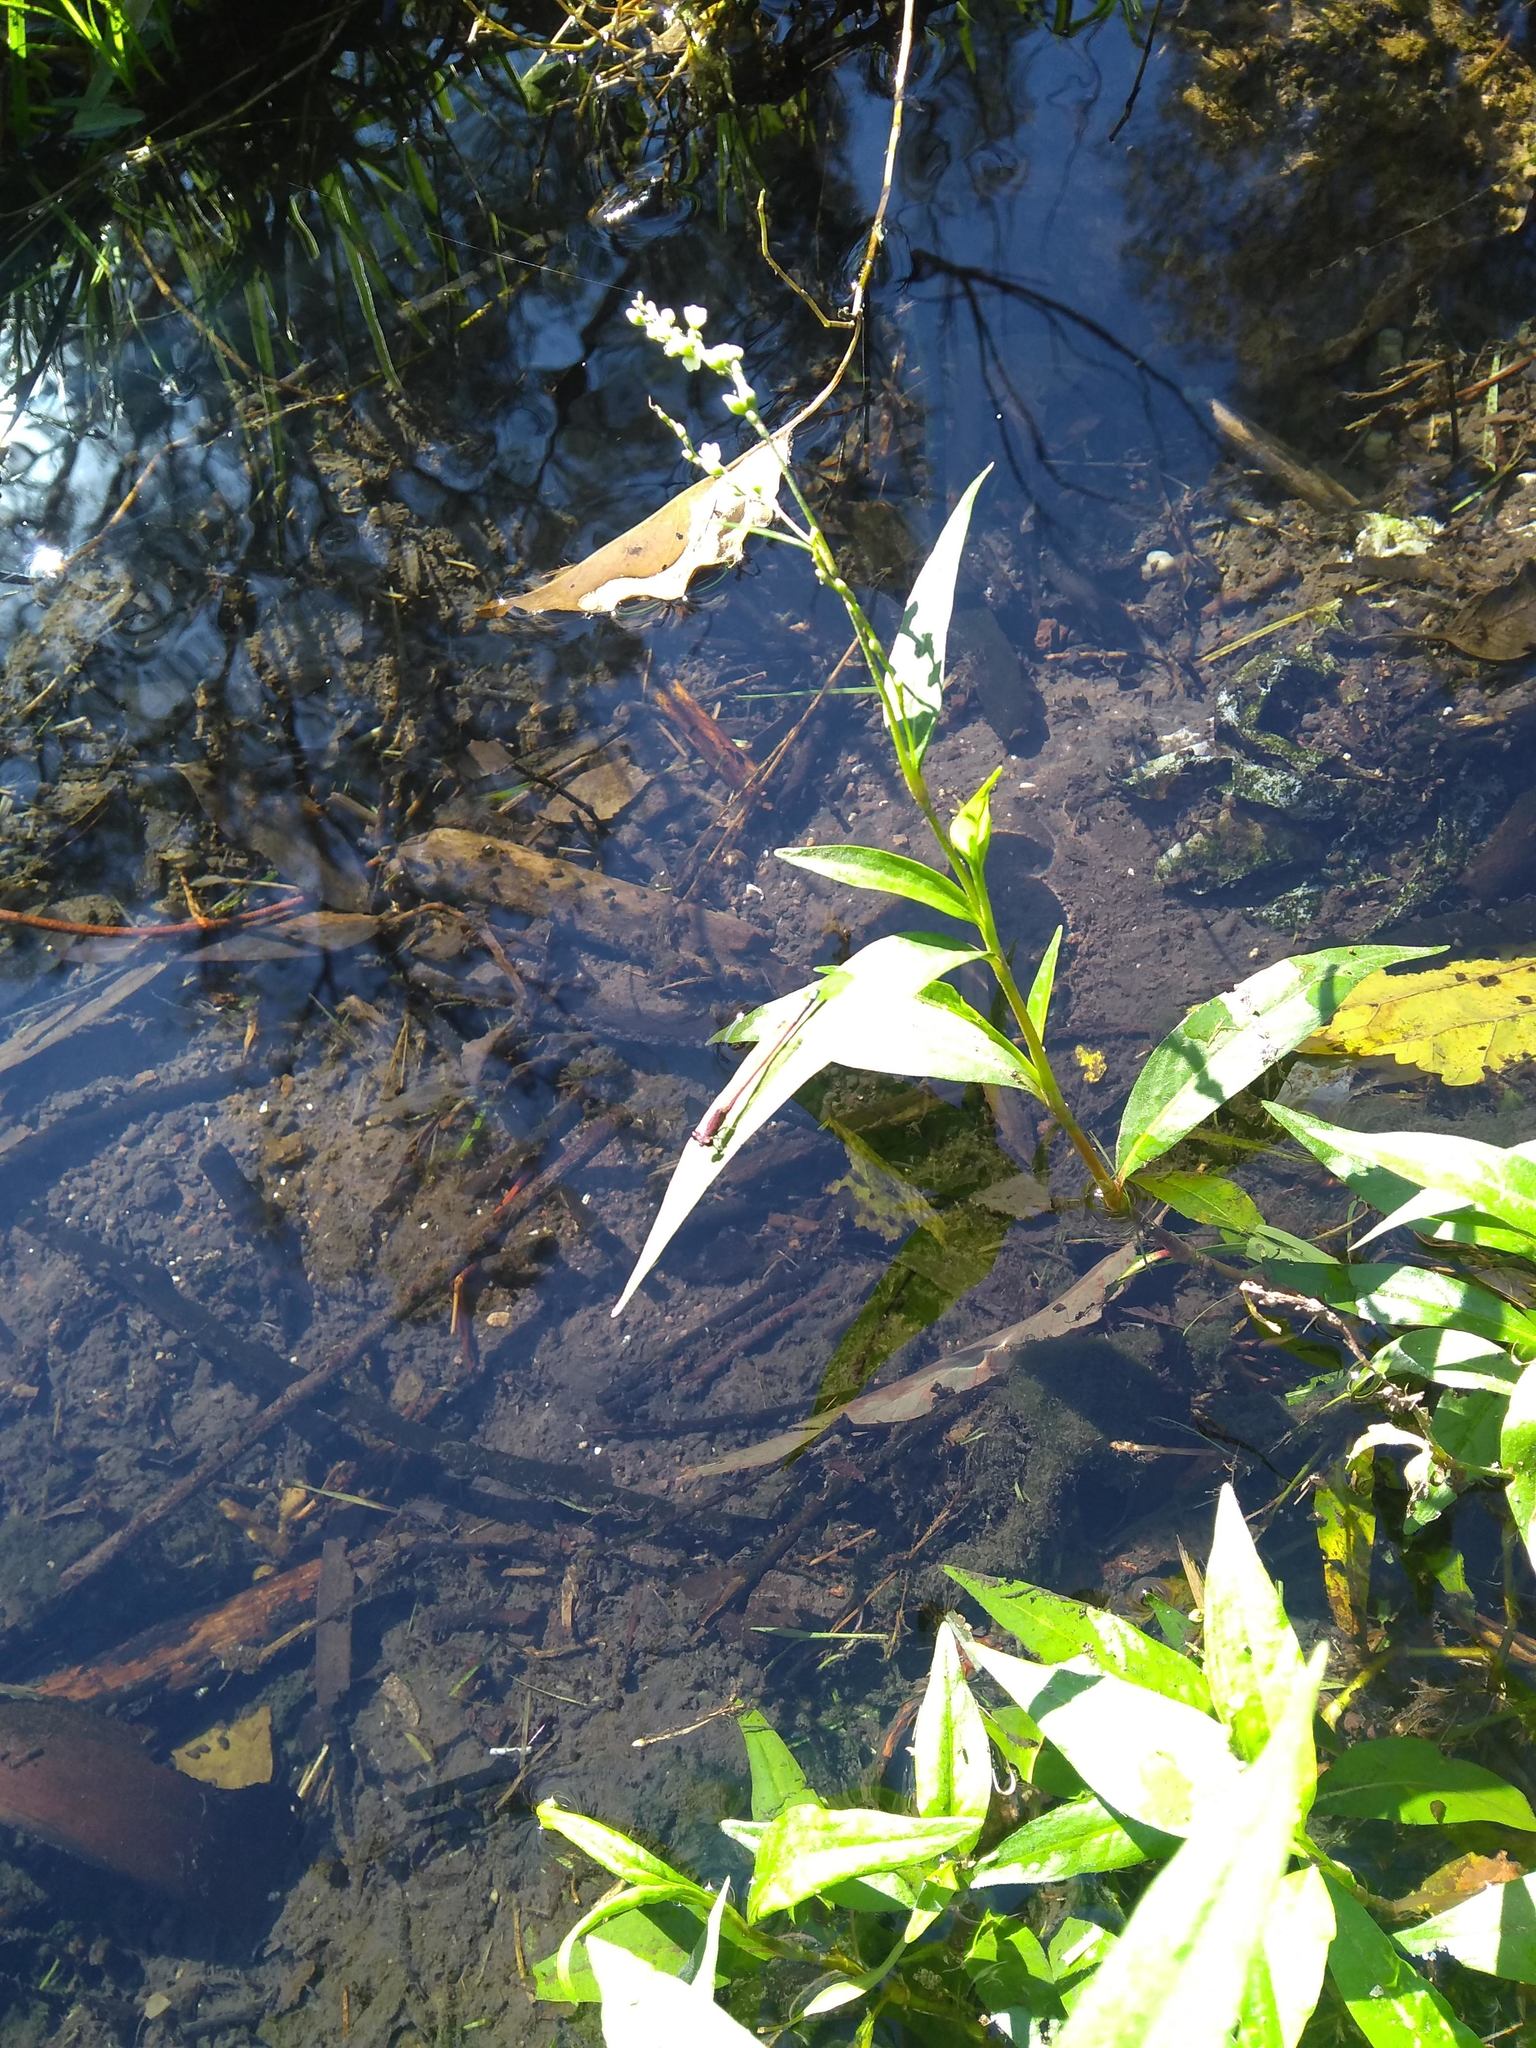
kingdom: Animalia
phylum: Arthropoda
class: Insecta
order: Odonata
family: Coenagrionidae
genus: Oxyagrion
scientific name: Oxyagrion terminale
